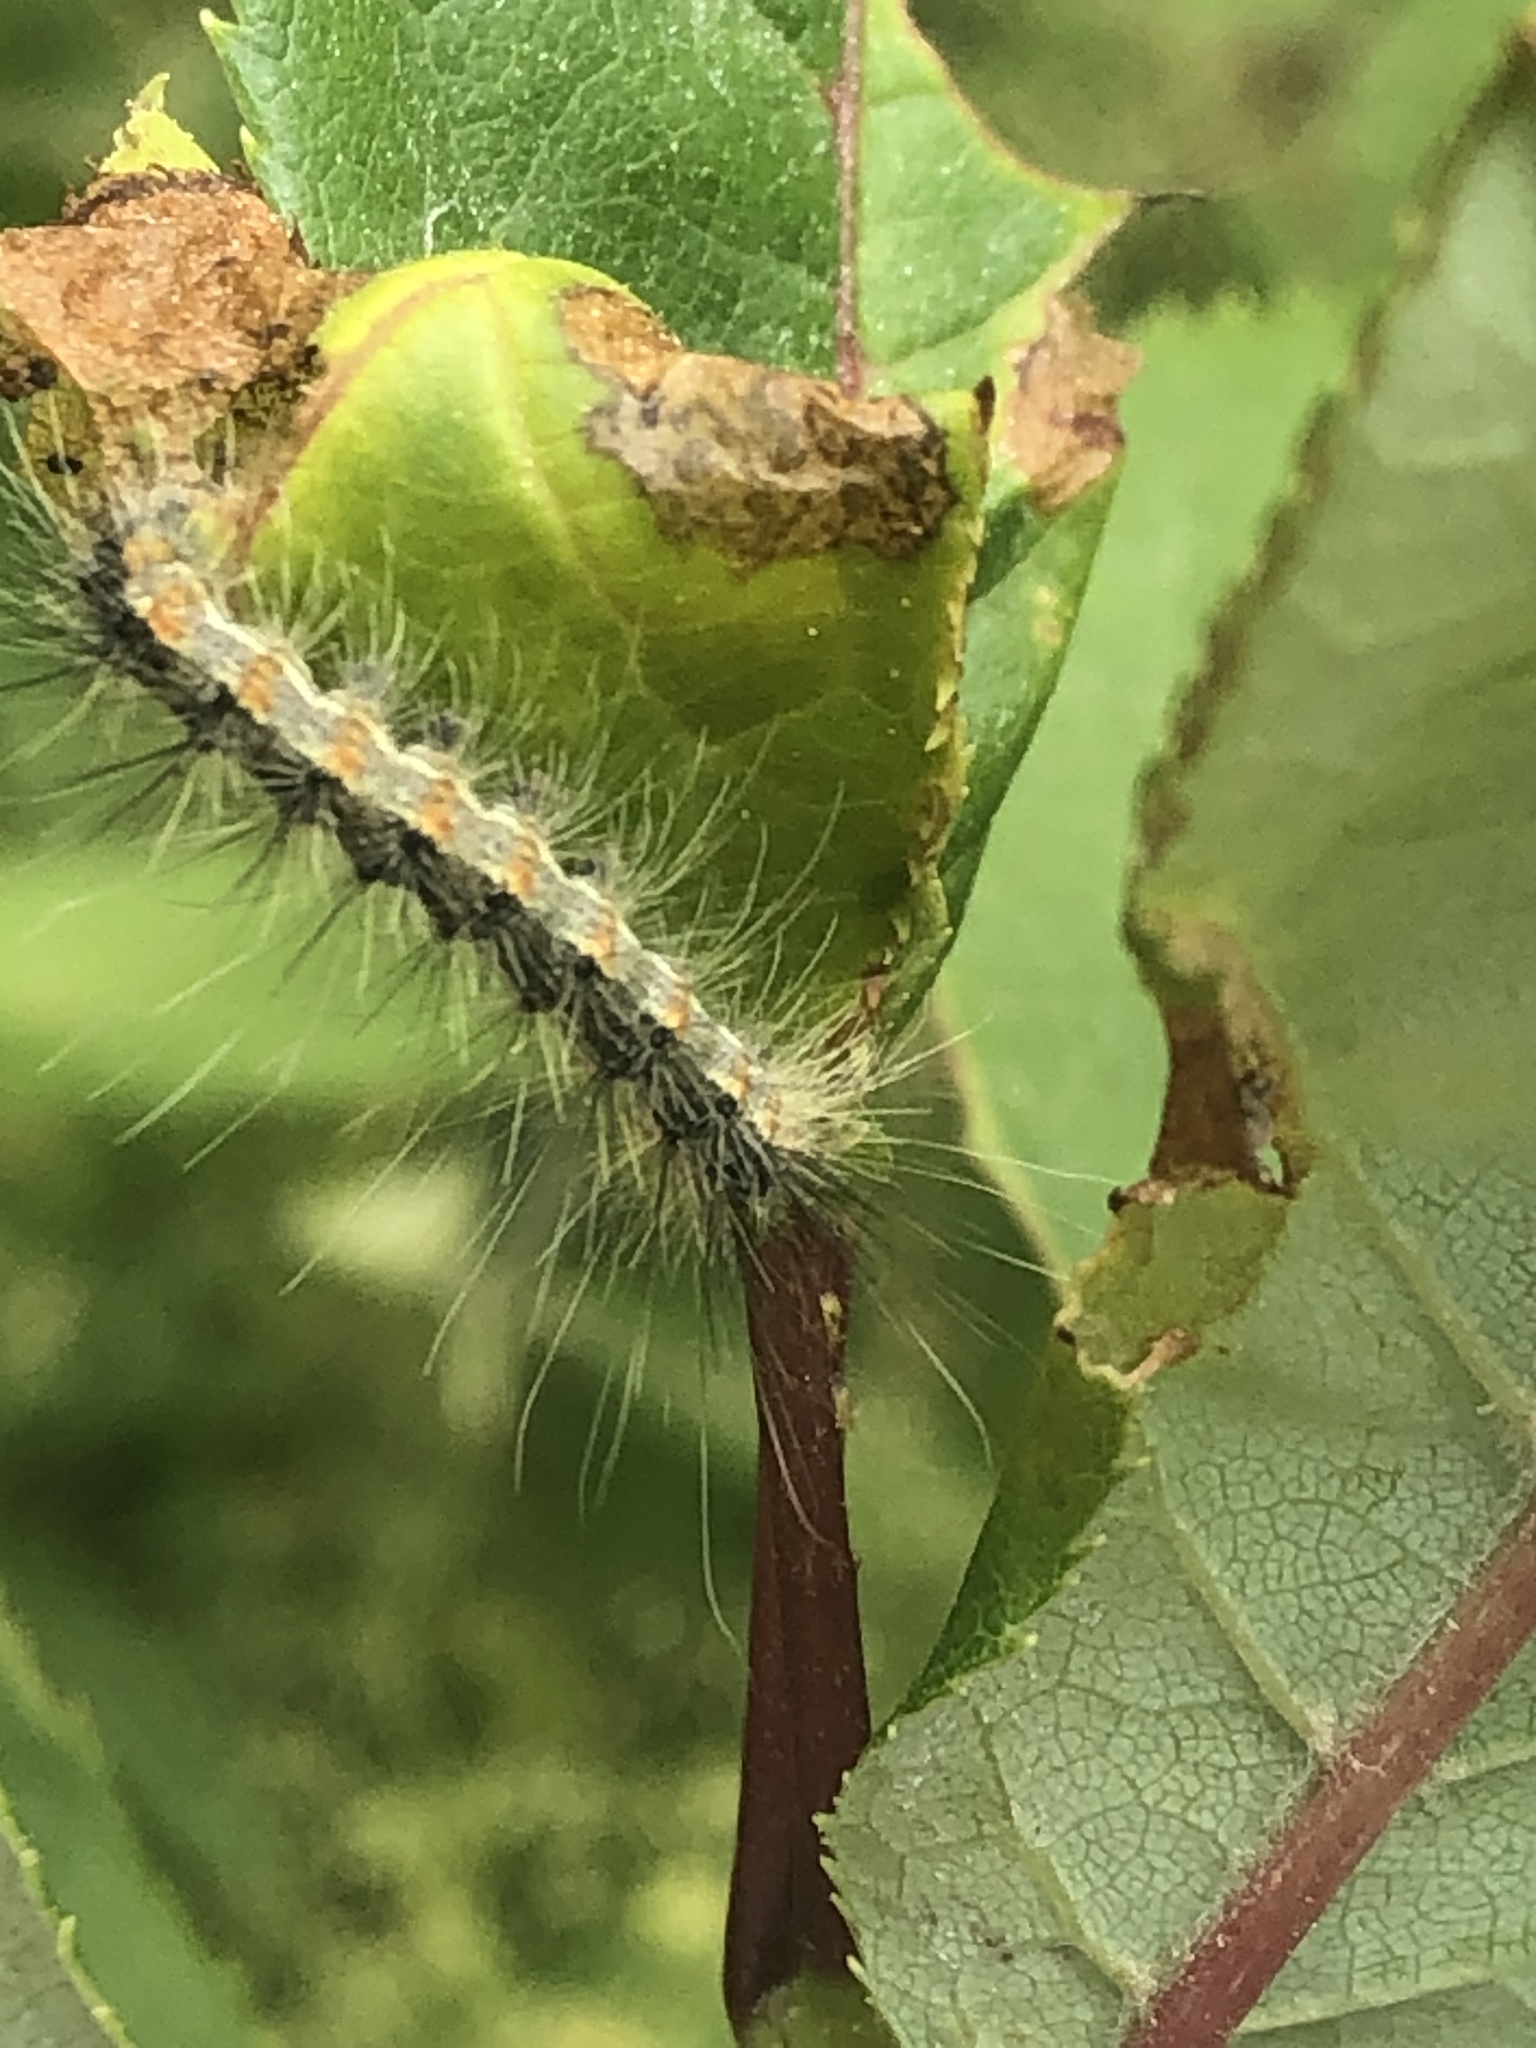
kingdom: Animalia
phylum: Arthropoda
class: Insecta
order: Lepidoptera
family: Erebidae
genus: Hyphantria
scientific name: Hyphantria cunea
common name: American white moth
